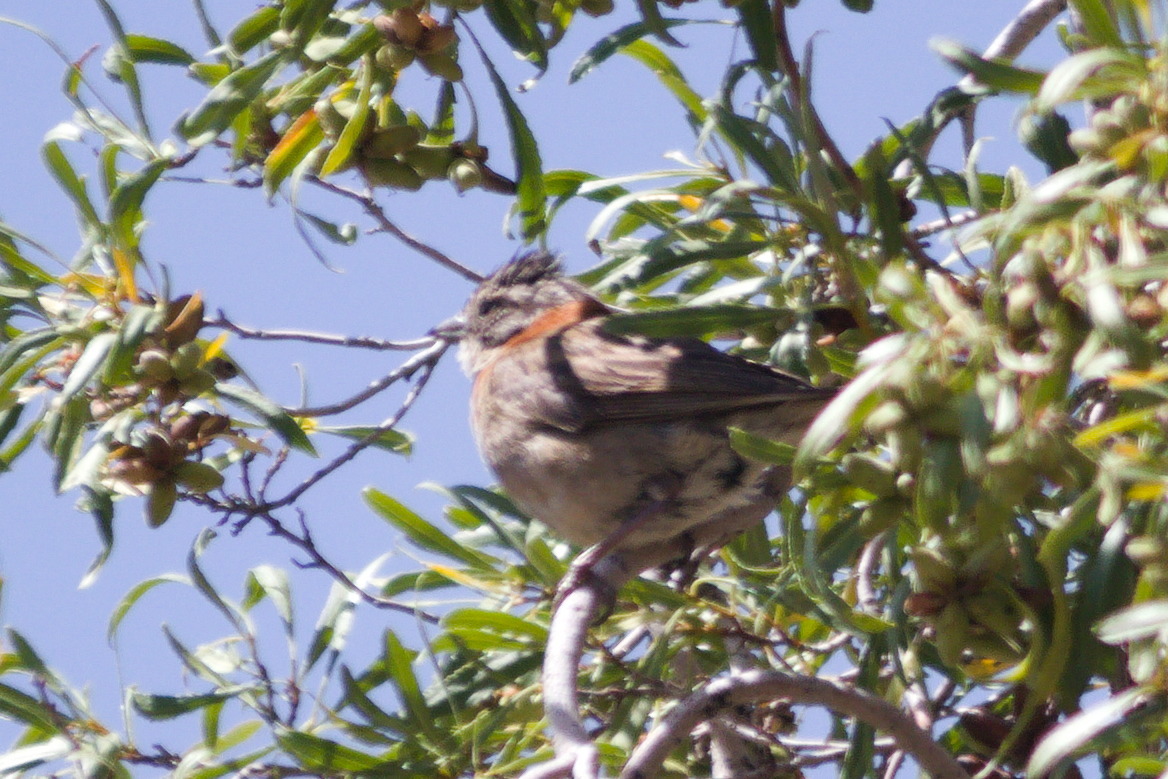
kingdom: Animalia
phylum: Chordata
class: Aves
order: Passeriformes
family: Passerellidae
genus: Zonotrichia
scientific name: Zonotrichia capensis
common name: Rufous-collared sparrow
